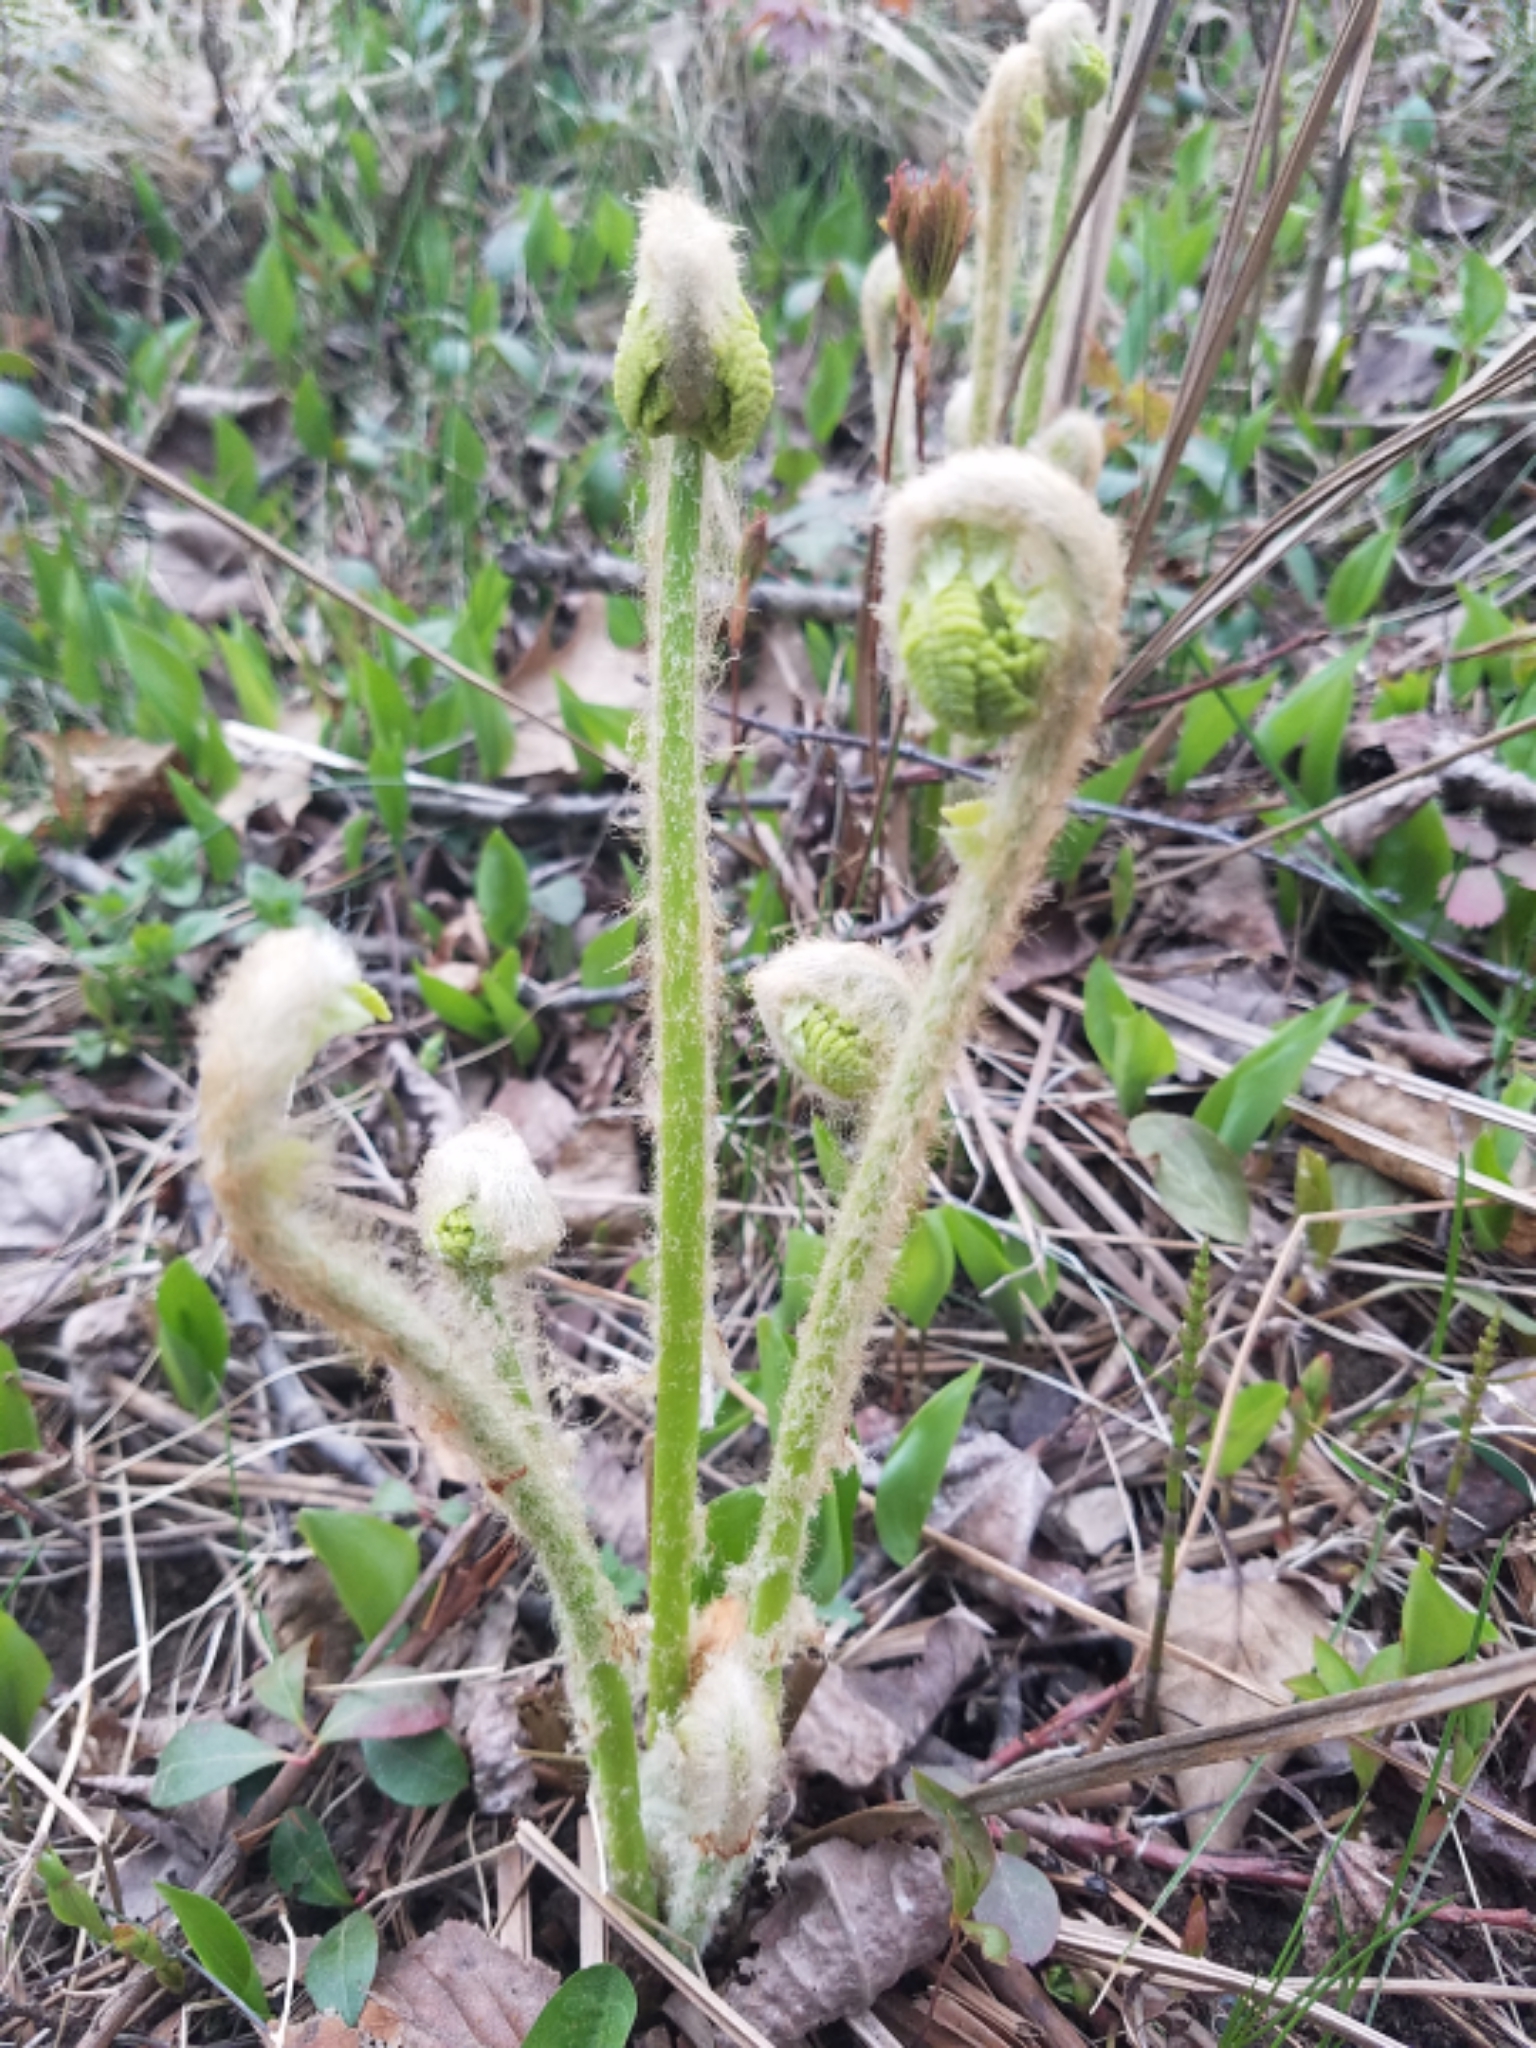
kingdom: Plantae
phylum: Tracheophyta
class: Polypodiopsida
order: Osmundales
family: Osmundaceae
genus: Claytosmunda
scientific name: Claytosmunda claytoniana
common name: Clayton's fern
